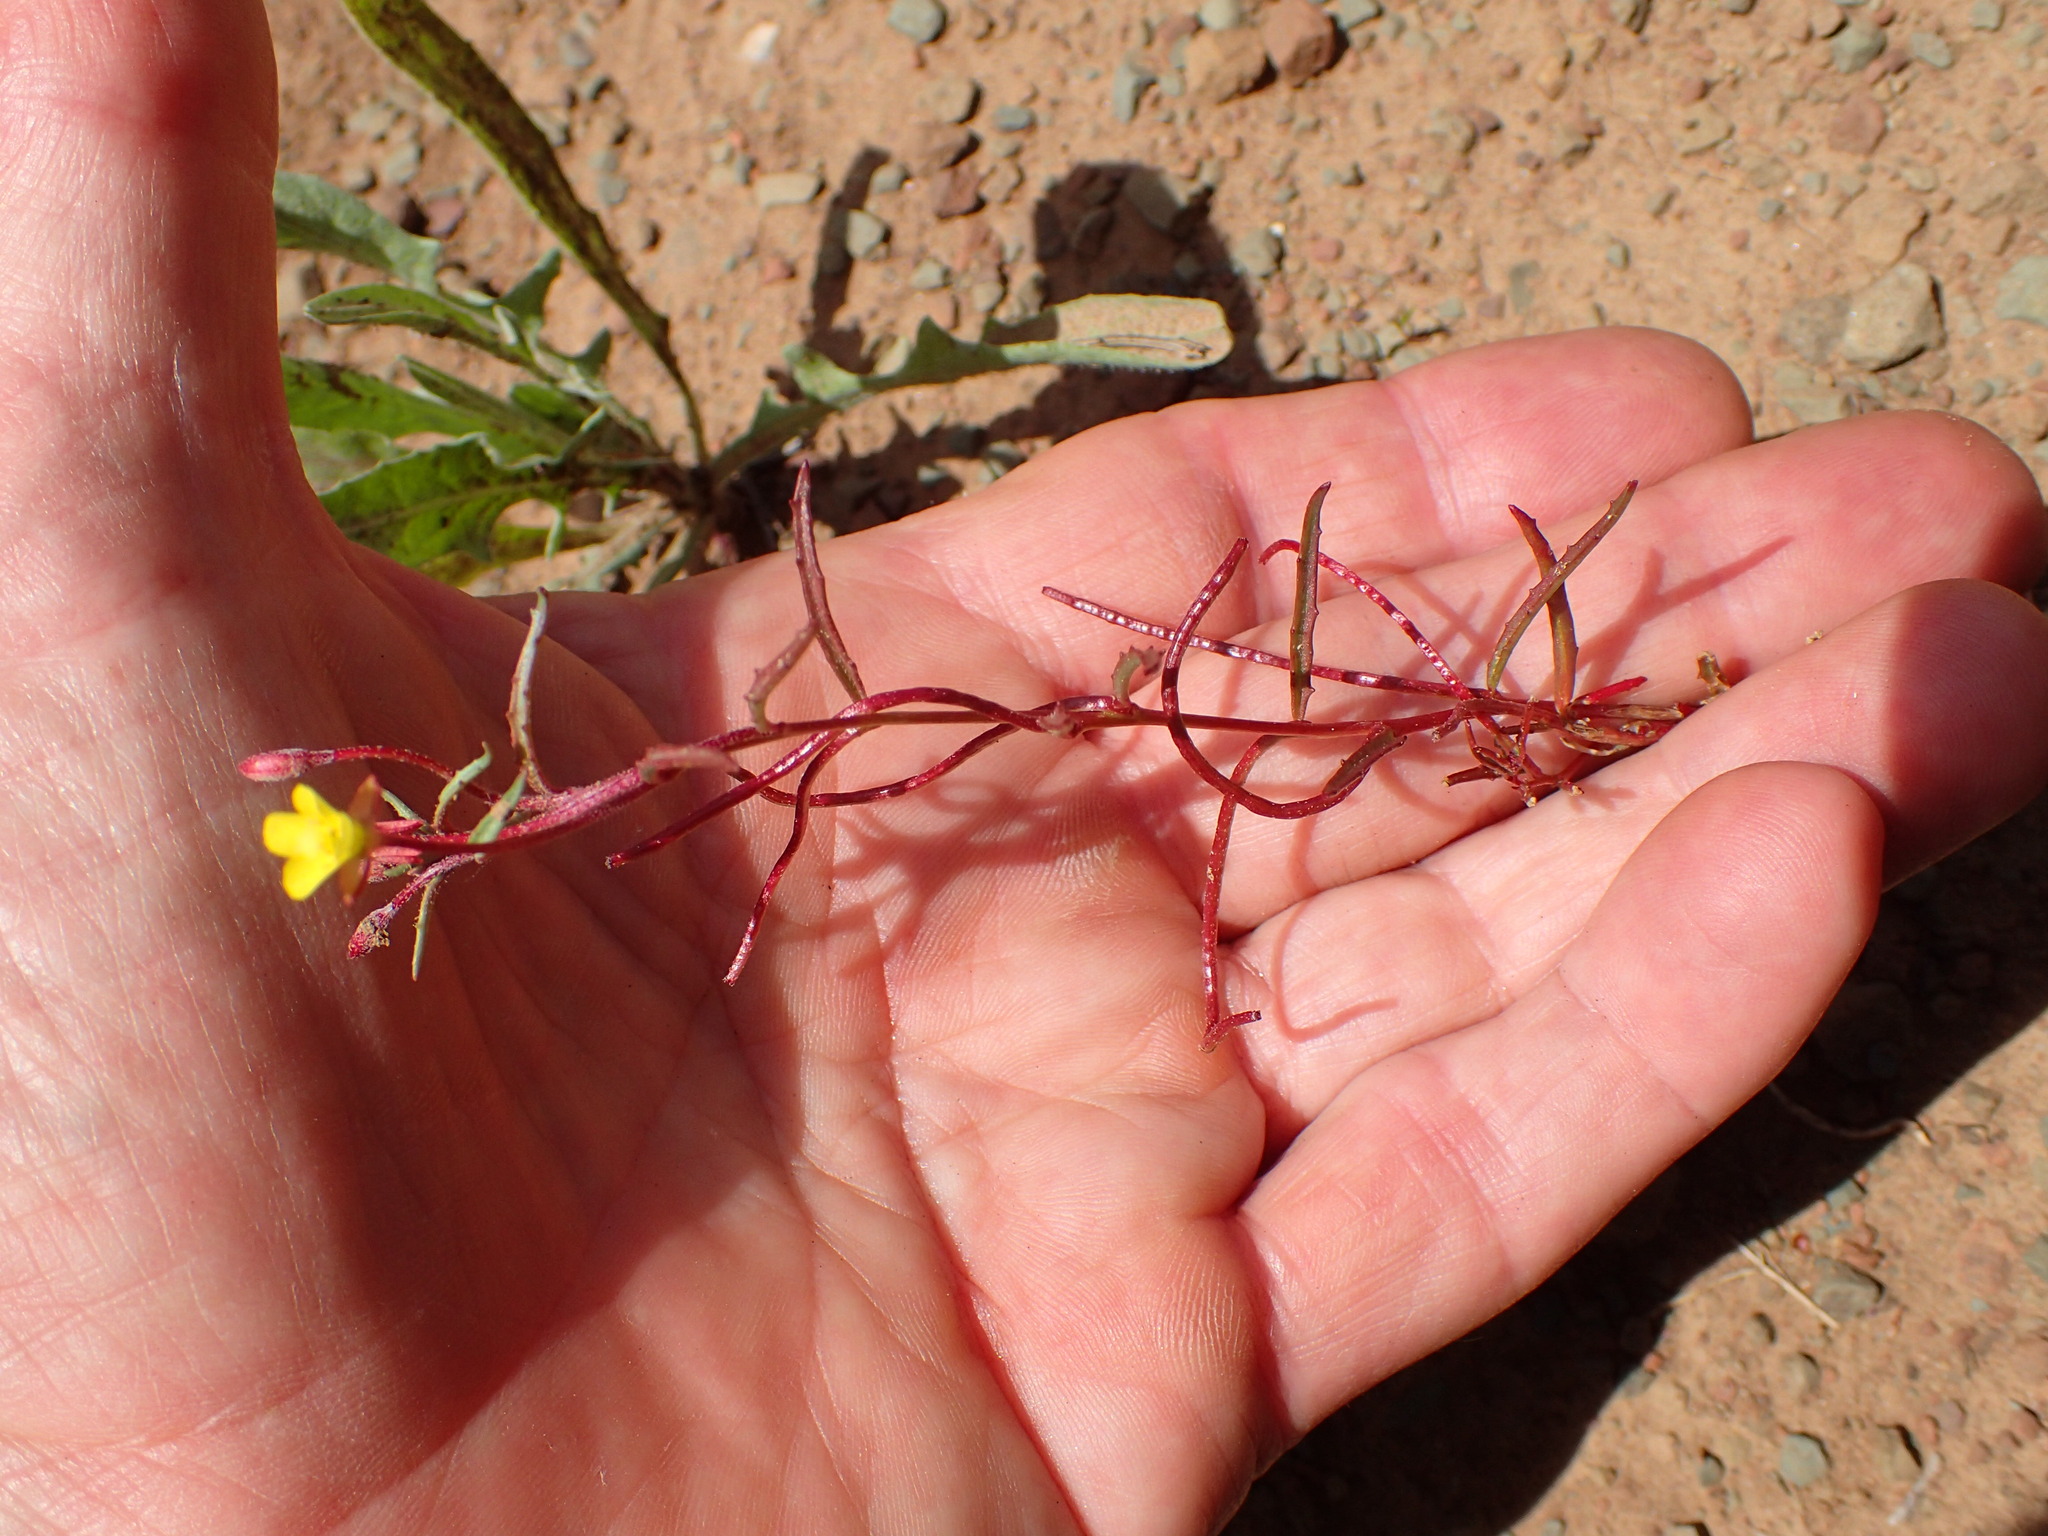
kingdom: Plantae
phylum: Tracheophyta
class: Magnoliopsida
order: Myrtales
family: Onagraceae
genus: Camissonia
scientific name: Camissonia contorta
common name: Contorted suncup
